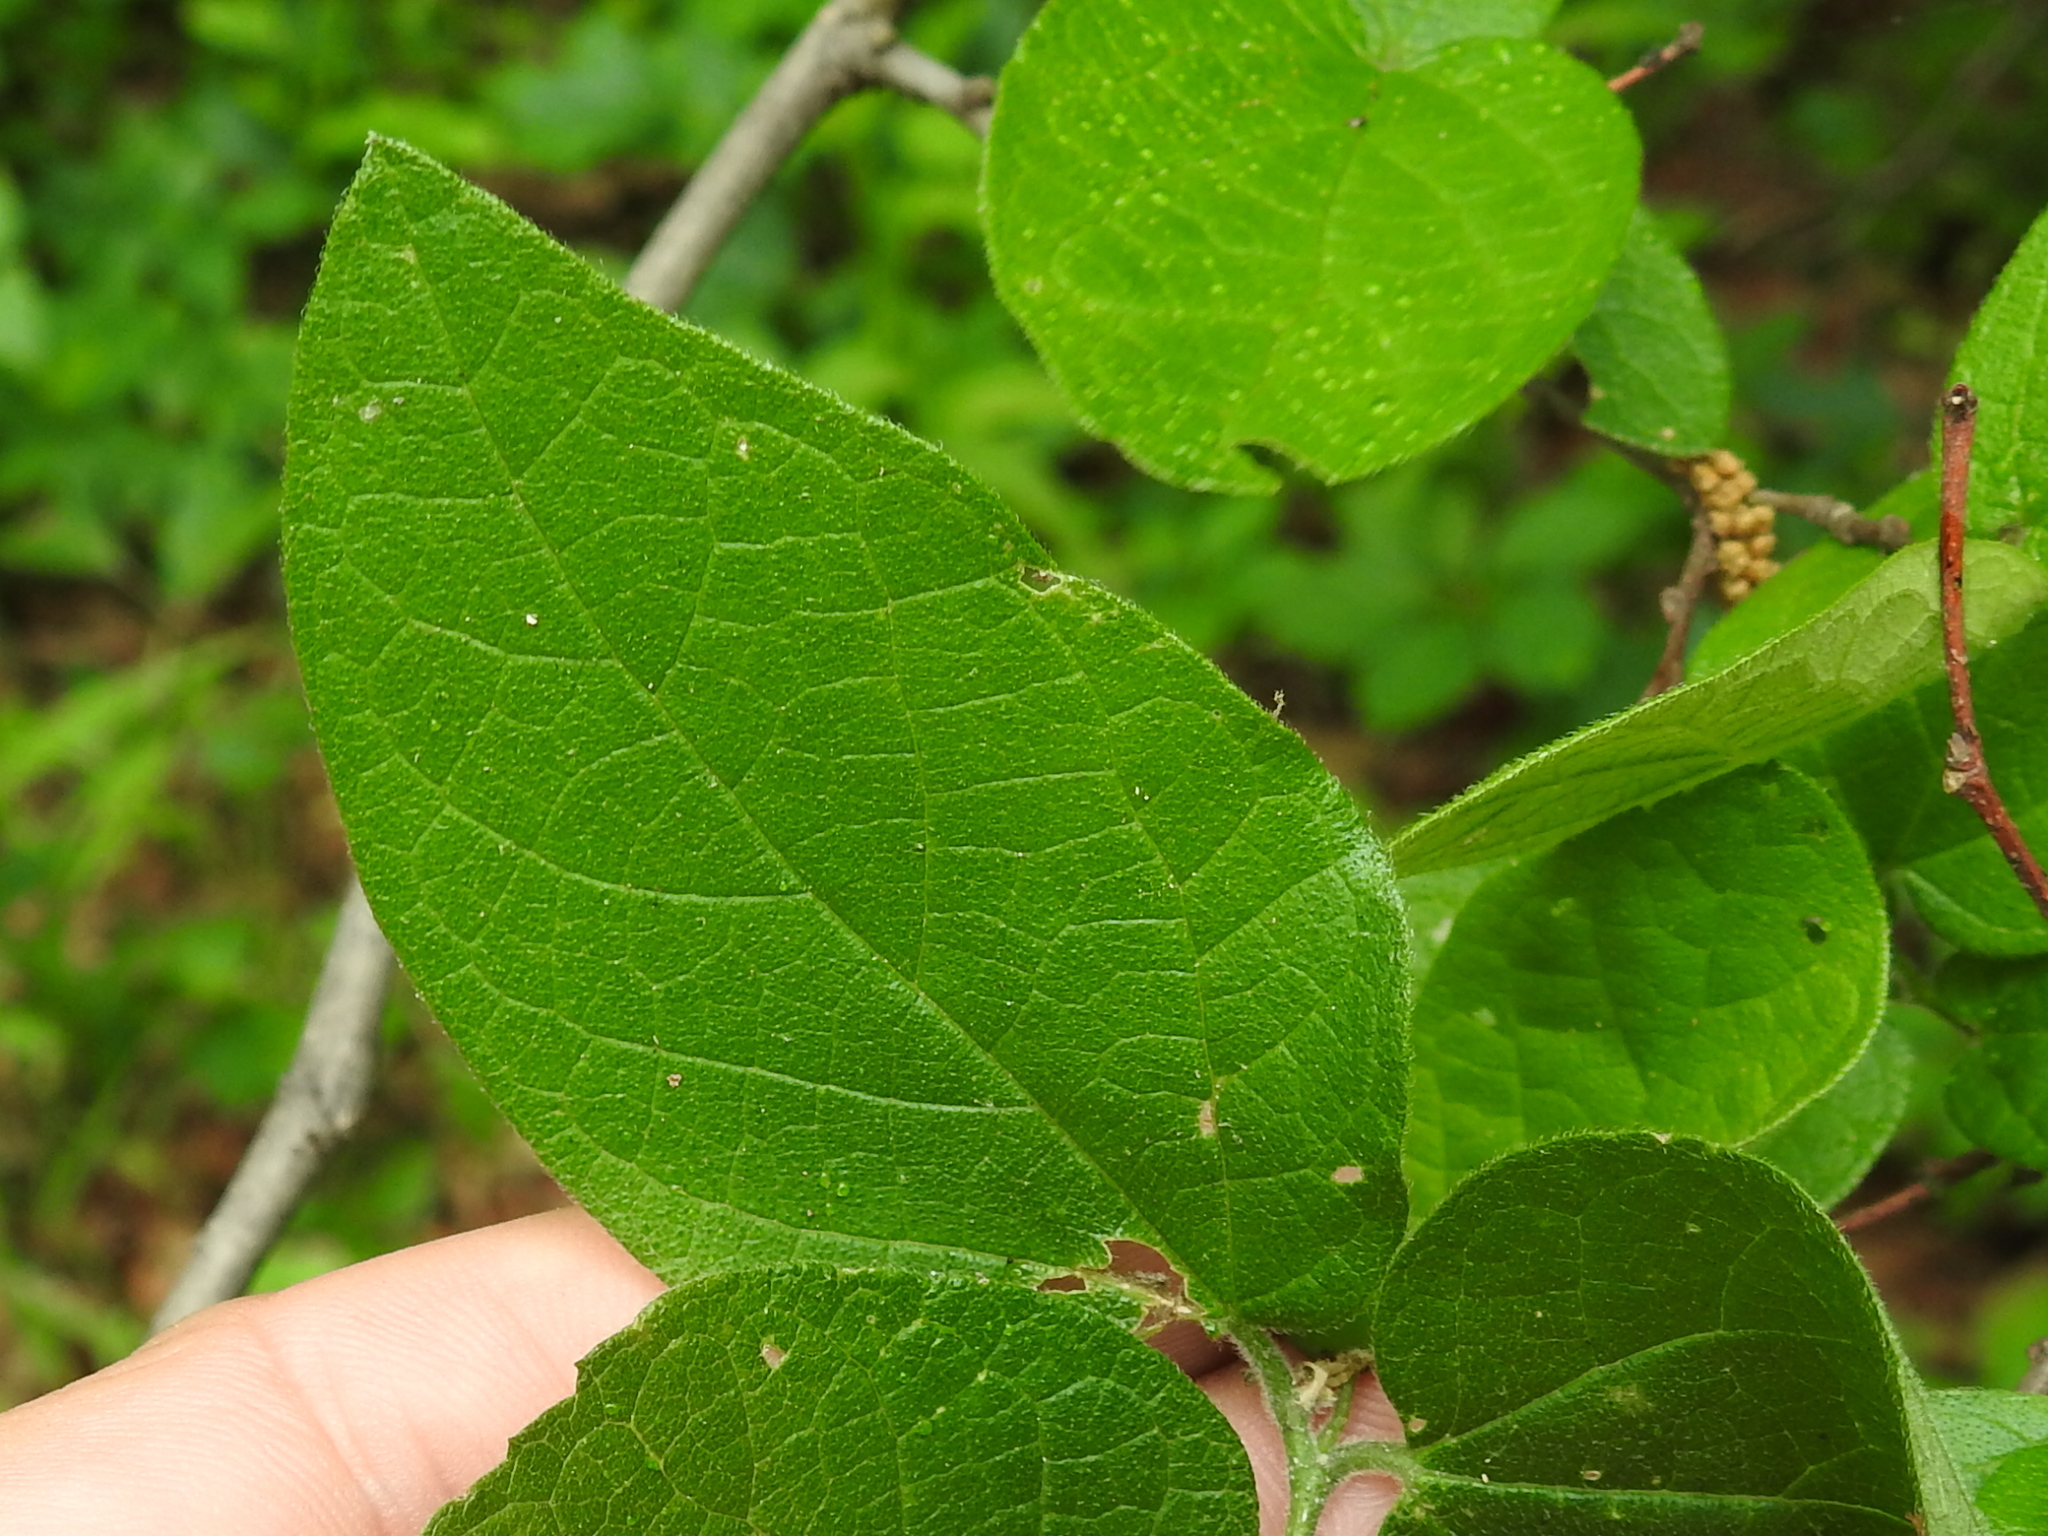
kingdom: Plantae
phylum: Tracheophyta
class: Magnoliopsida
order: Rosales
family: Cannabaceae
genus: Celtis
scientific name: Celtis reticulata
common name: Netleaf hackberry
